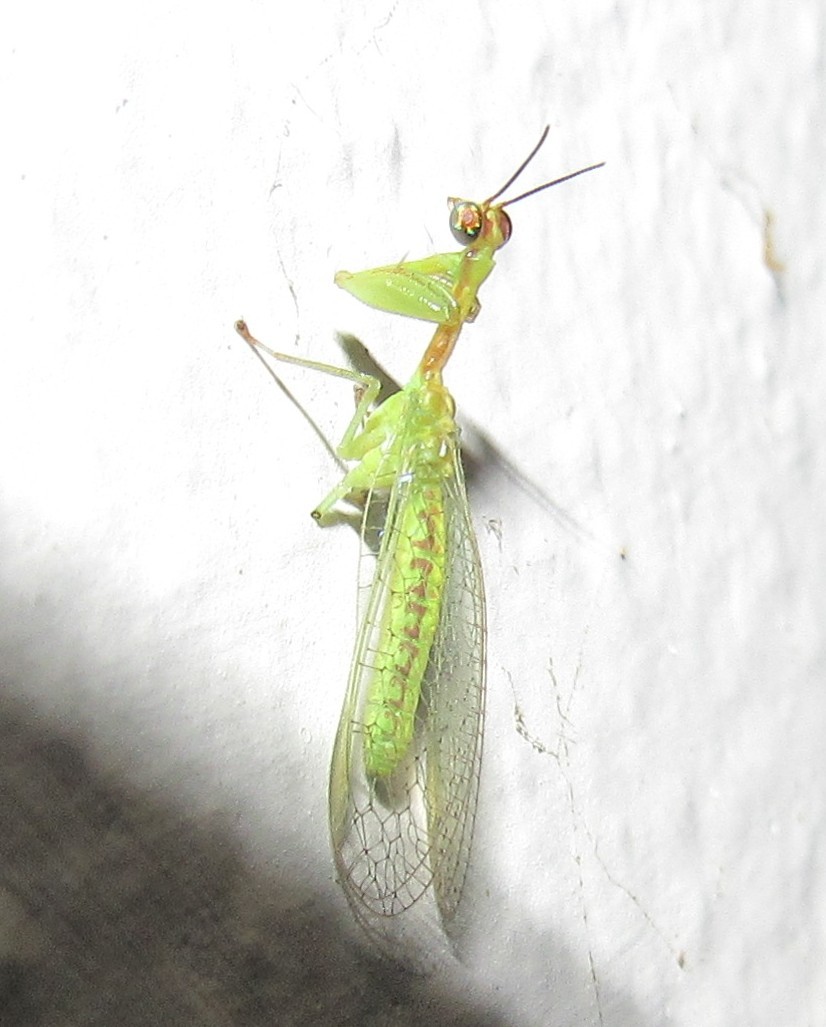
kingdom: Animalia
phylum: Arthropoda
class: Insecta
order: Neuroptera
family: Mantispidae
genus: Zeugomantispa
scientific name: Zeugomantispa minuta
